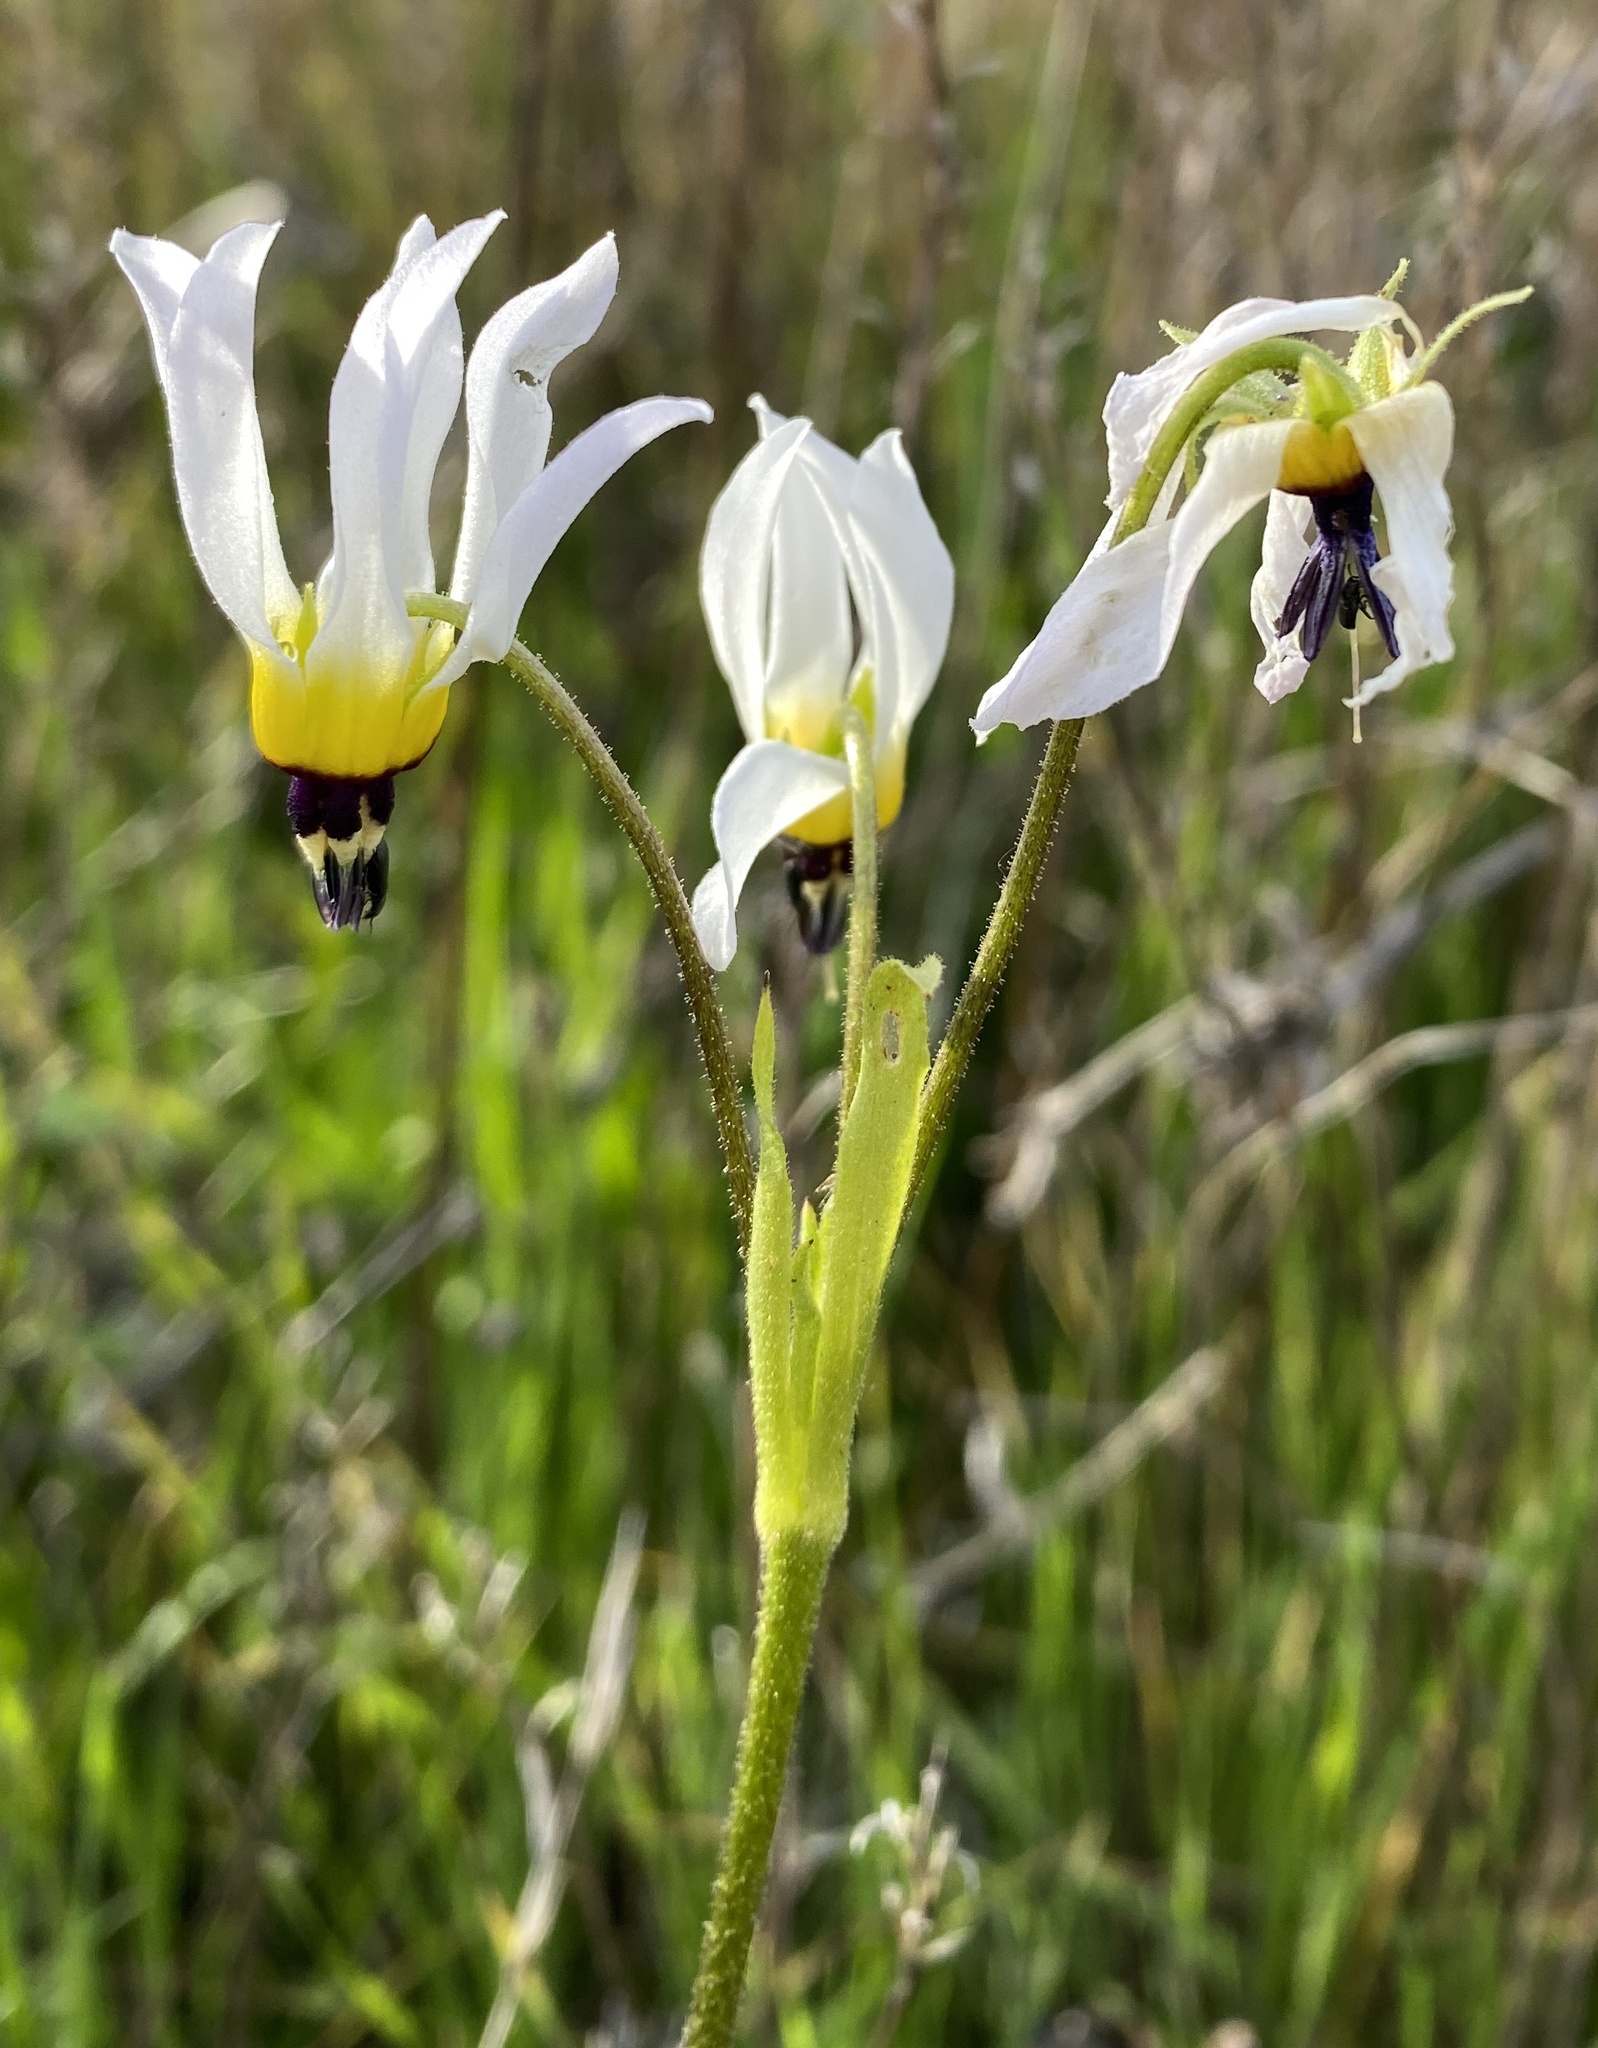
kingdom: Plantae
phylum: Tracheophyta
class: Magnoliopsida
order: Ericales
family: Primulaceae
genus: Dodecatheon
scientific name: Dodecatheon clevelandii
